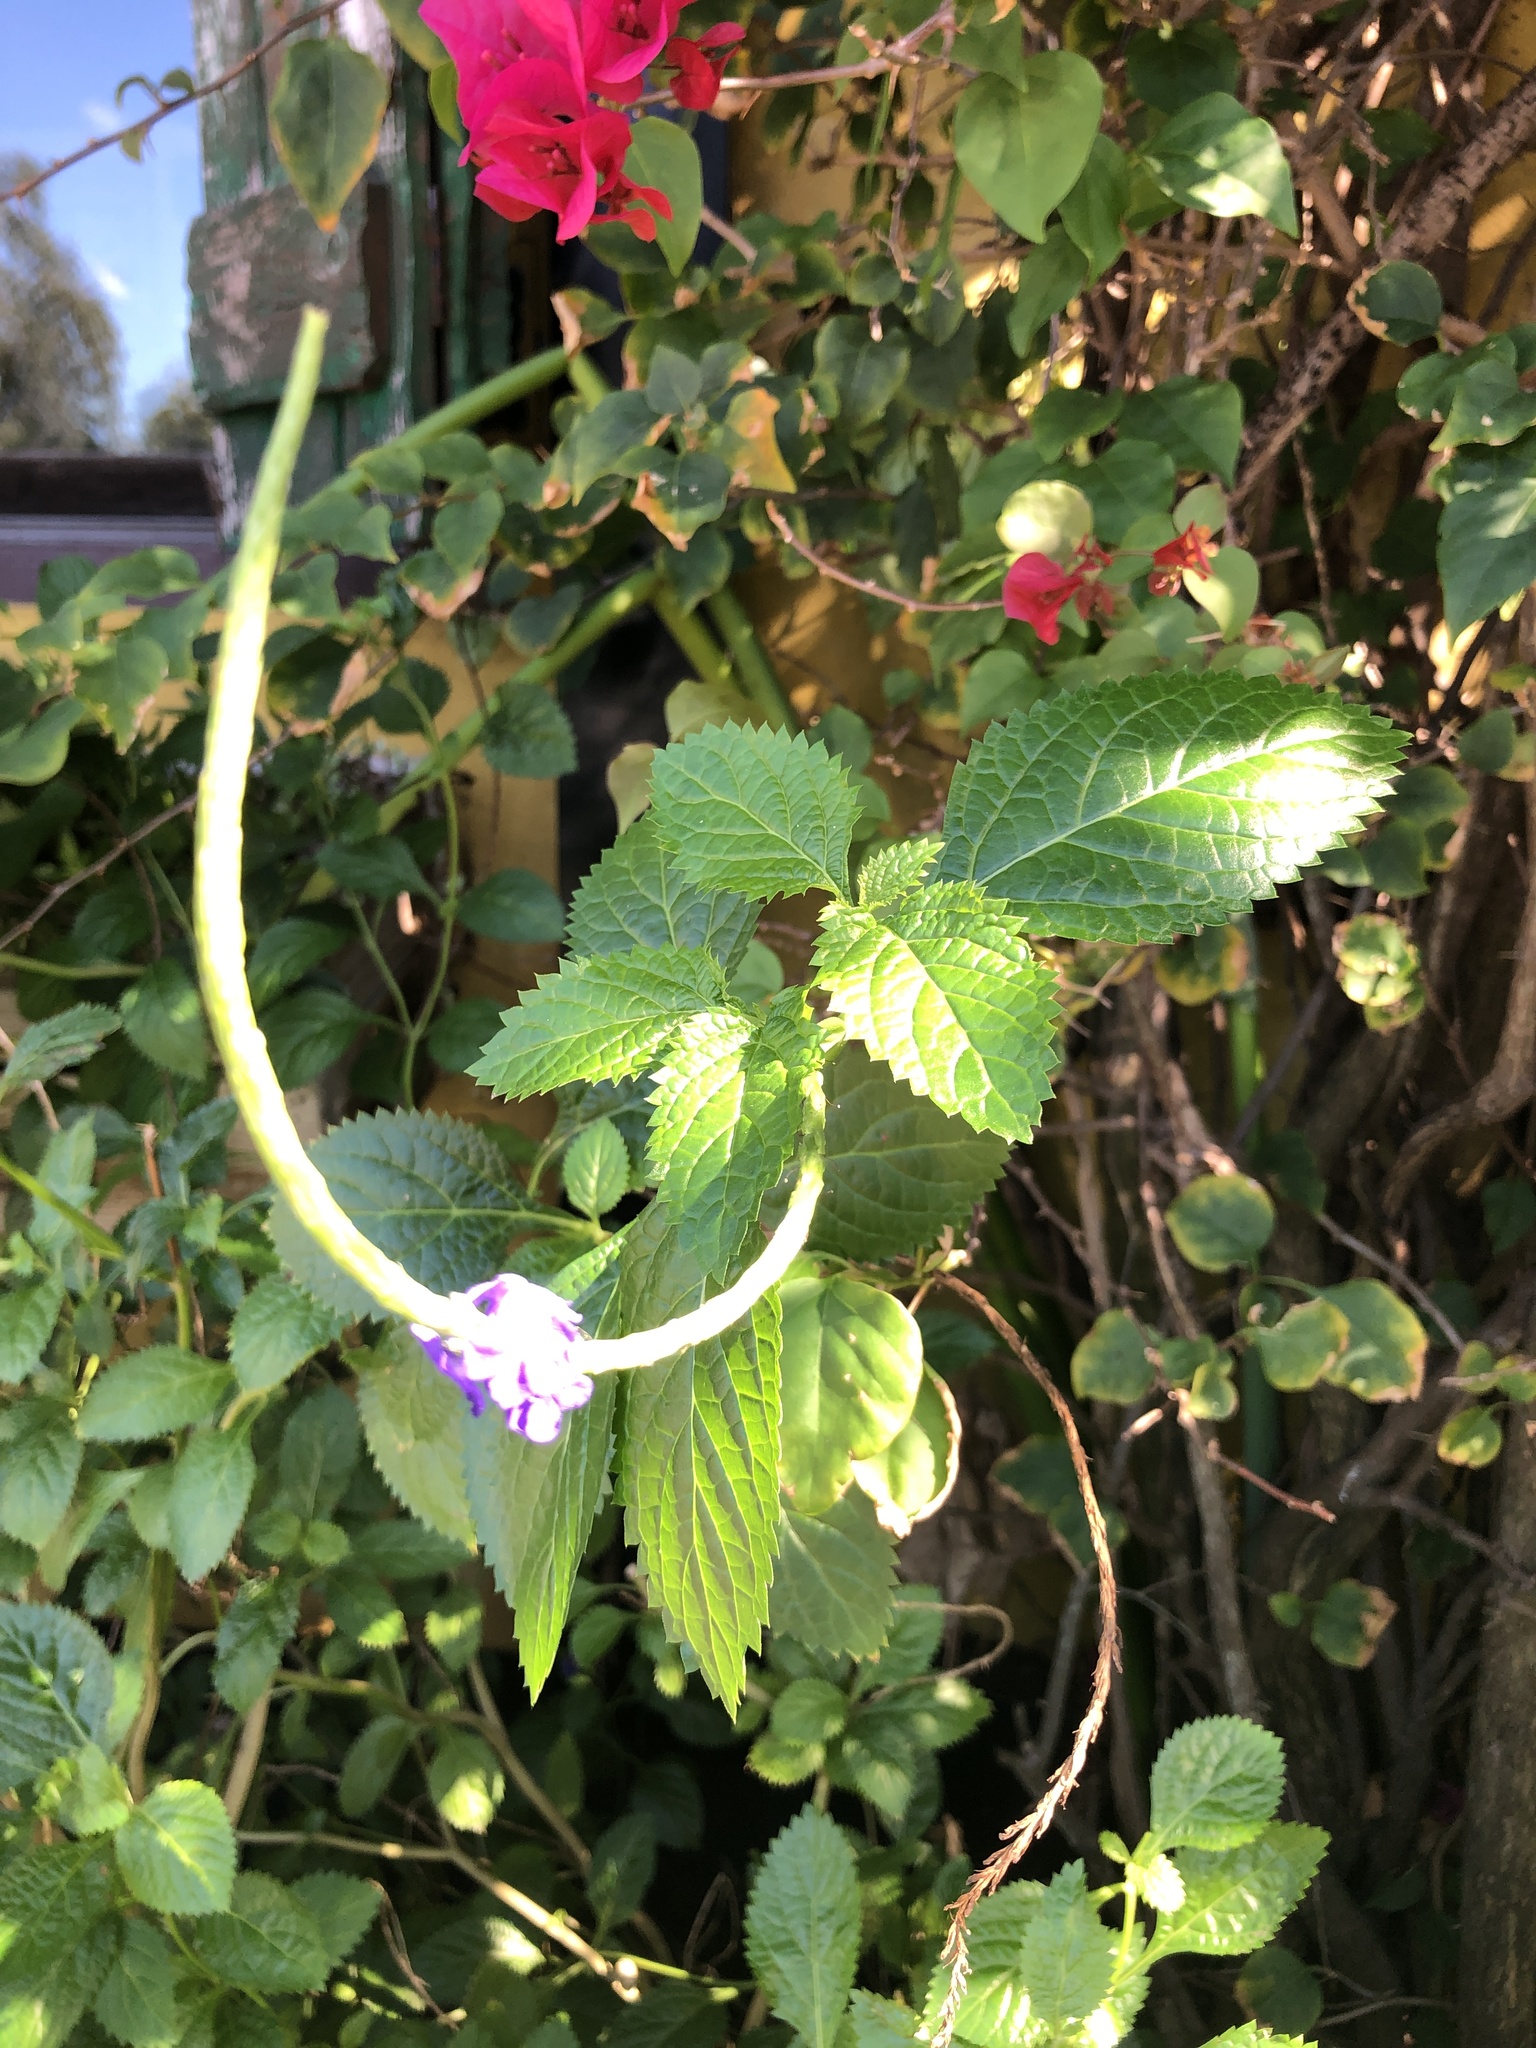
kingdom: Plantae
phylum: Tracheophyta
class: Magnoliopsida
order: Lamiales
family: Verbenaceae
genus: Stachytarpheta
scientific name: Stachytarpheta jamaicensis
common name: Light-blue snakeweed
